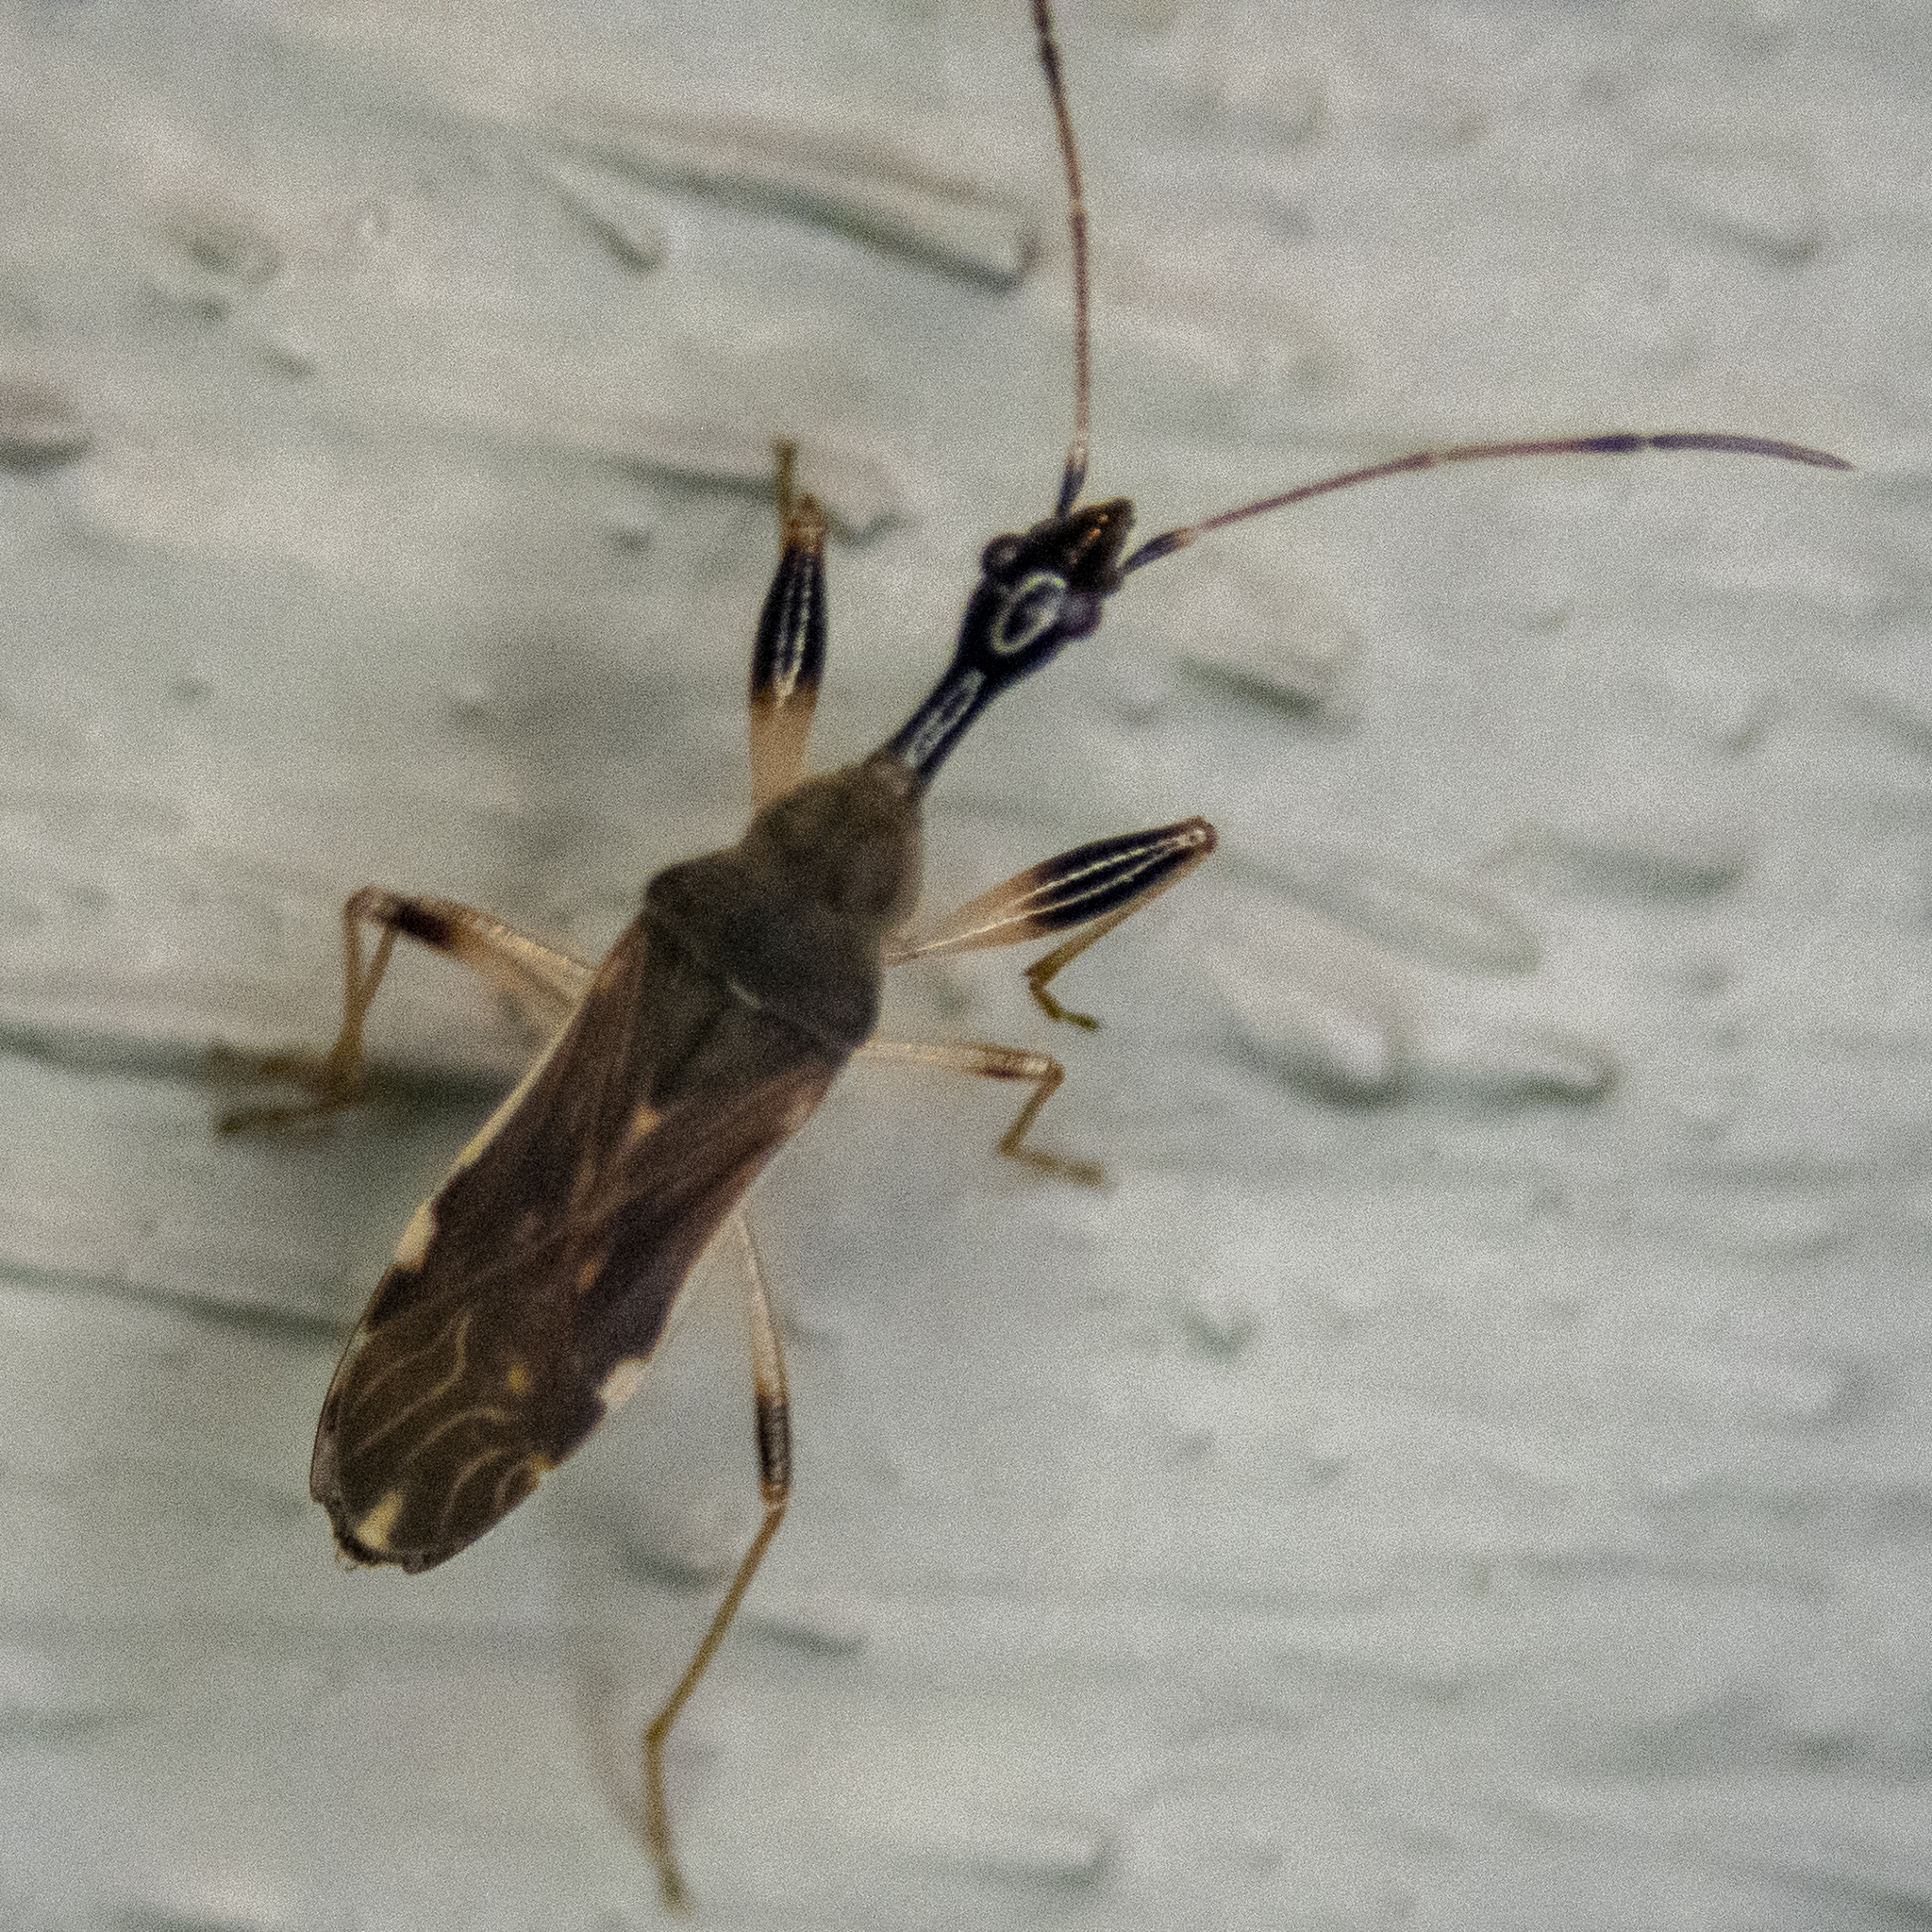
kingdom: Animalia
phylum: Arthropoda
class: Insecta
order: Hemiptera
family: Rhyparochromidae
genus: Myodocha
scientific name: Myodocha serripes
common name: Long-necked seed bug
